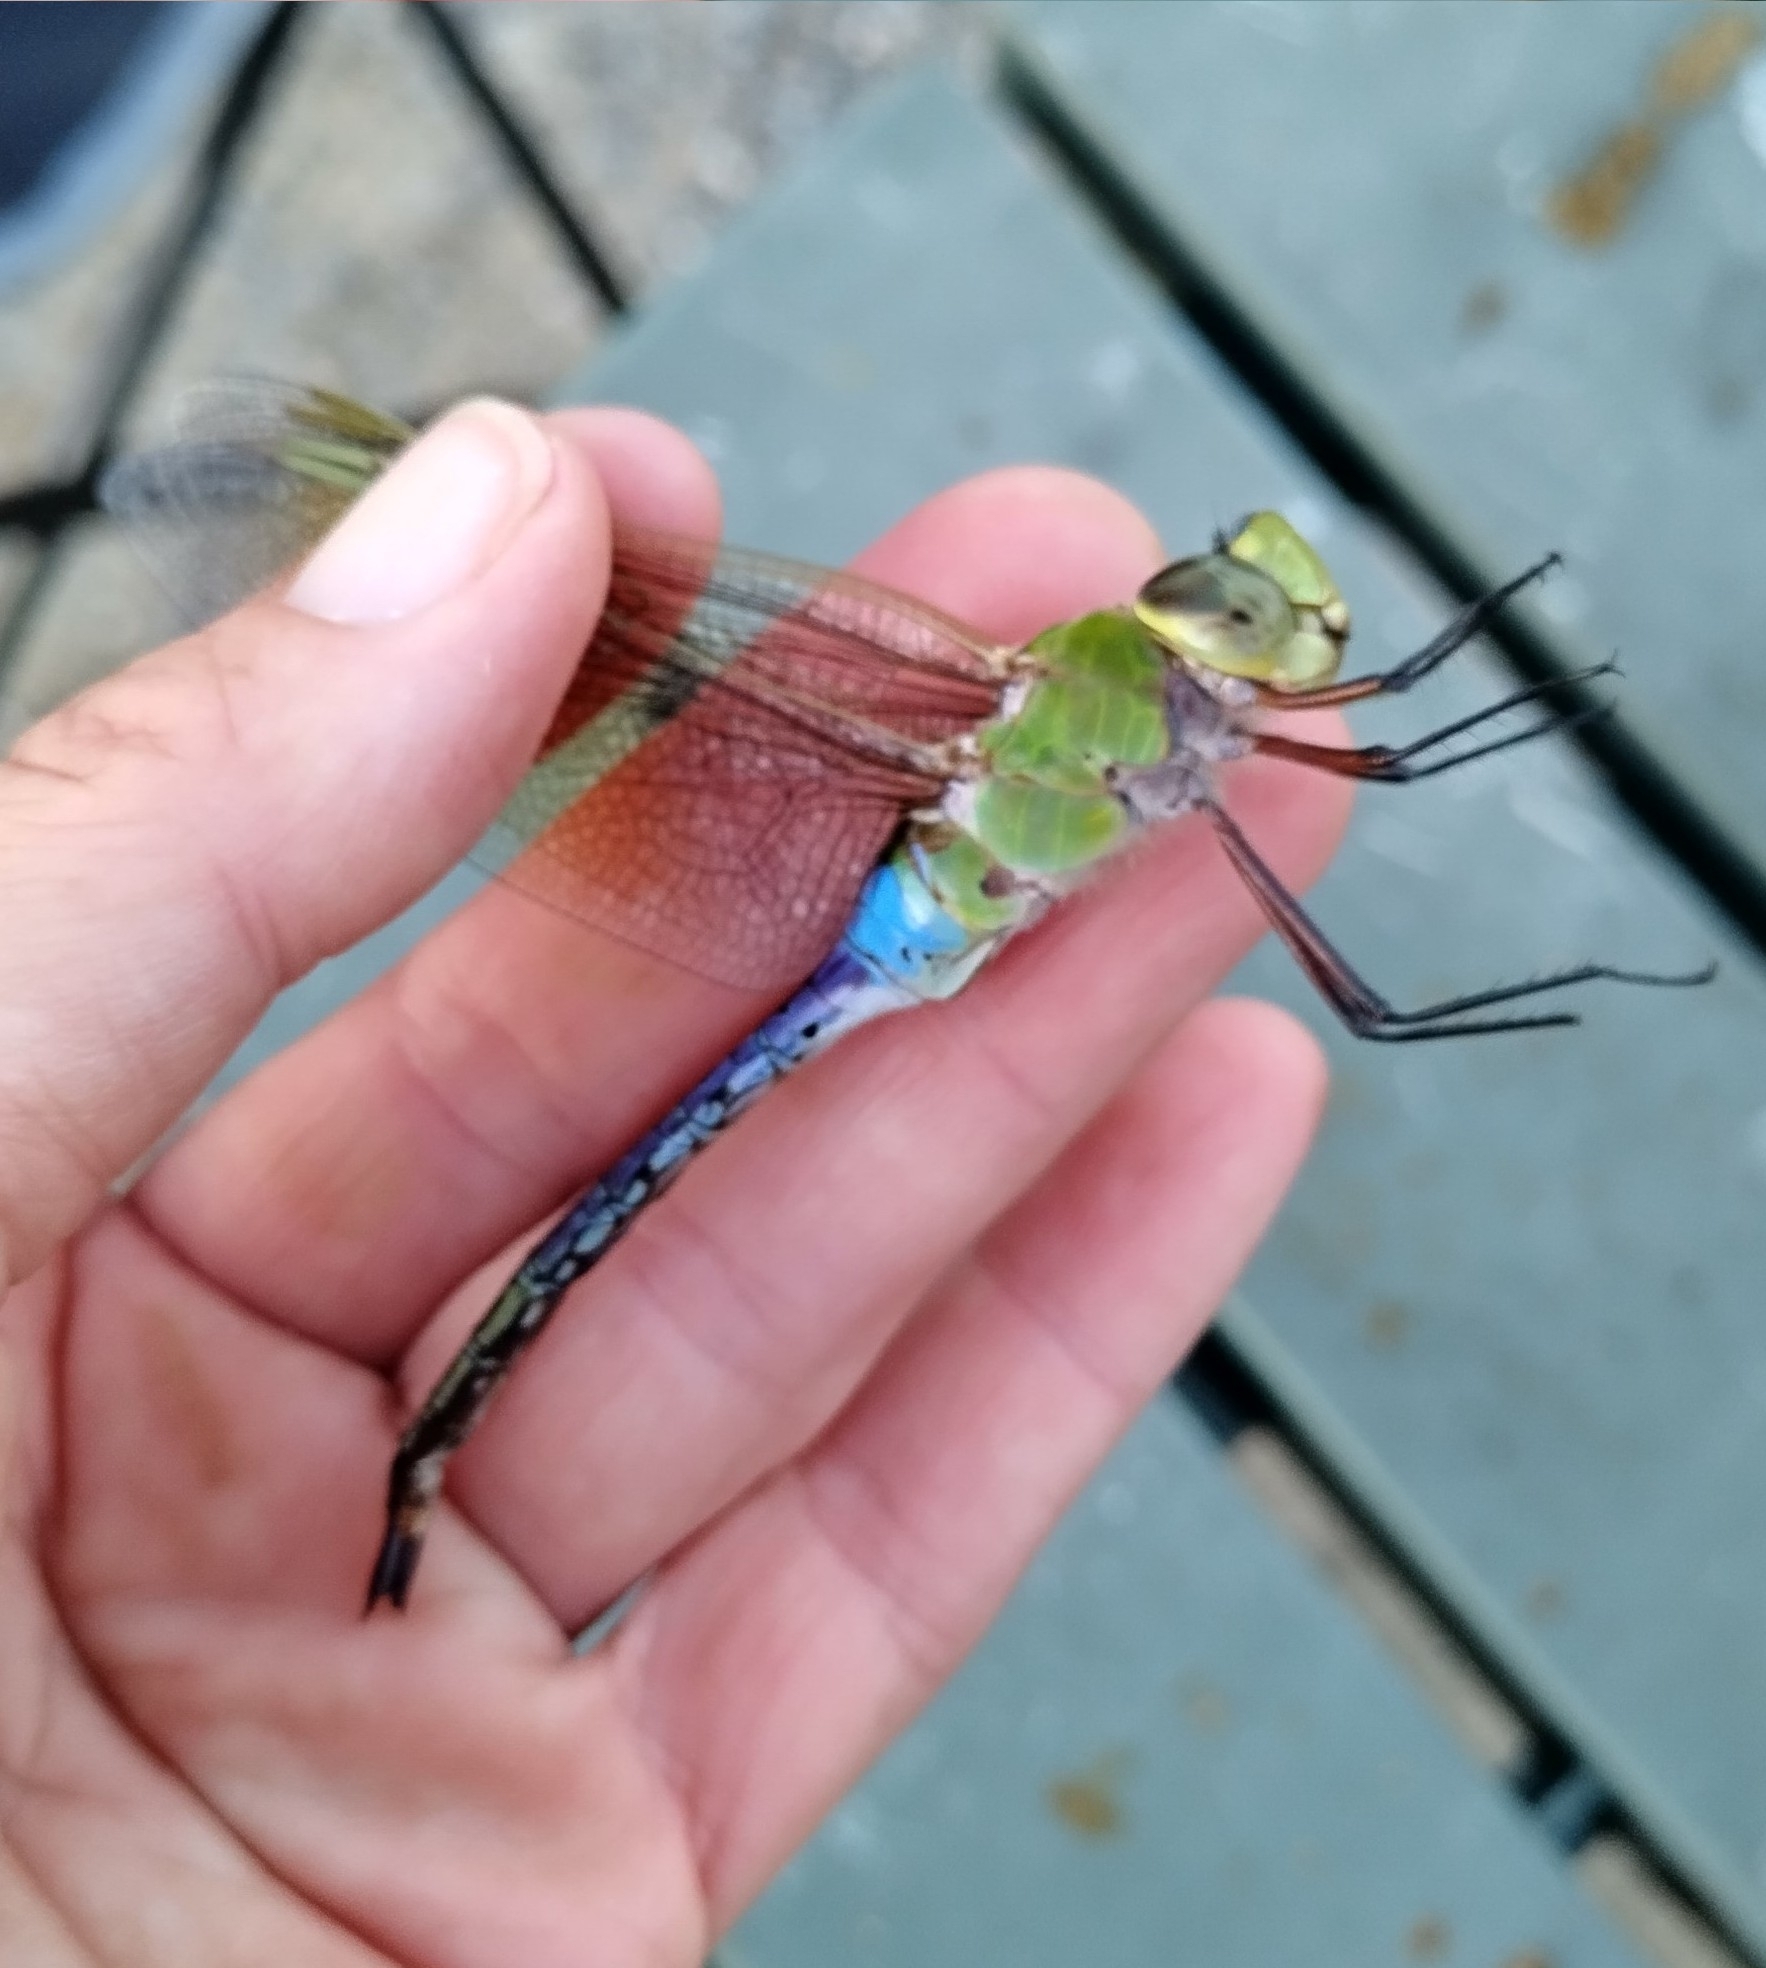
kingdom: Animalia
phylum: Arthropoda
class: Insecta
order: Odonata
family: Aeshnidae
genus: Anax
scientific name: Anax junius
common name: Common green darner
